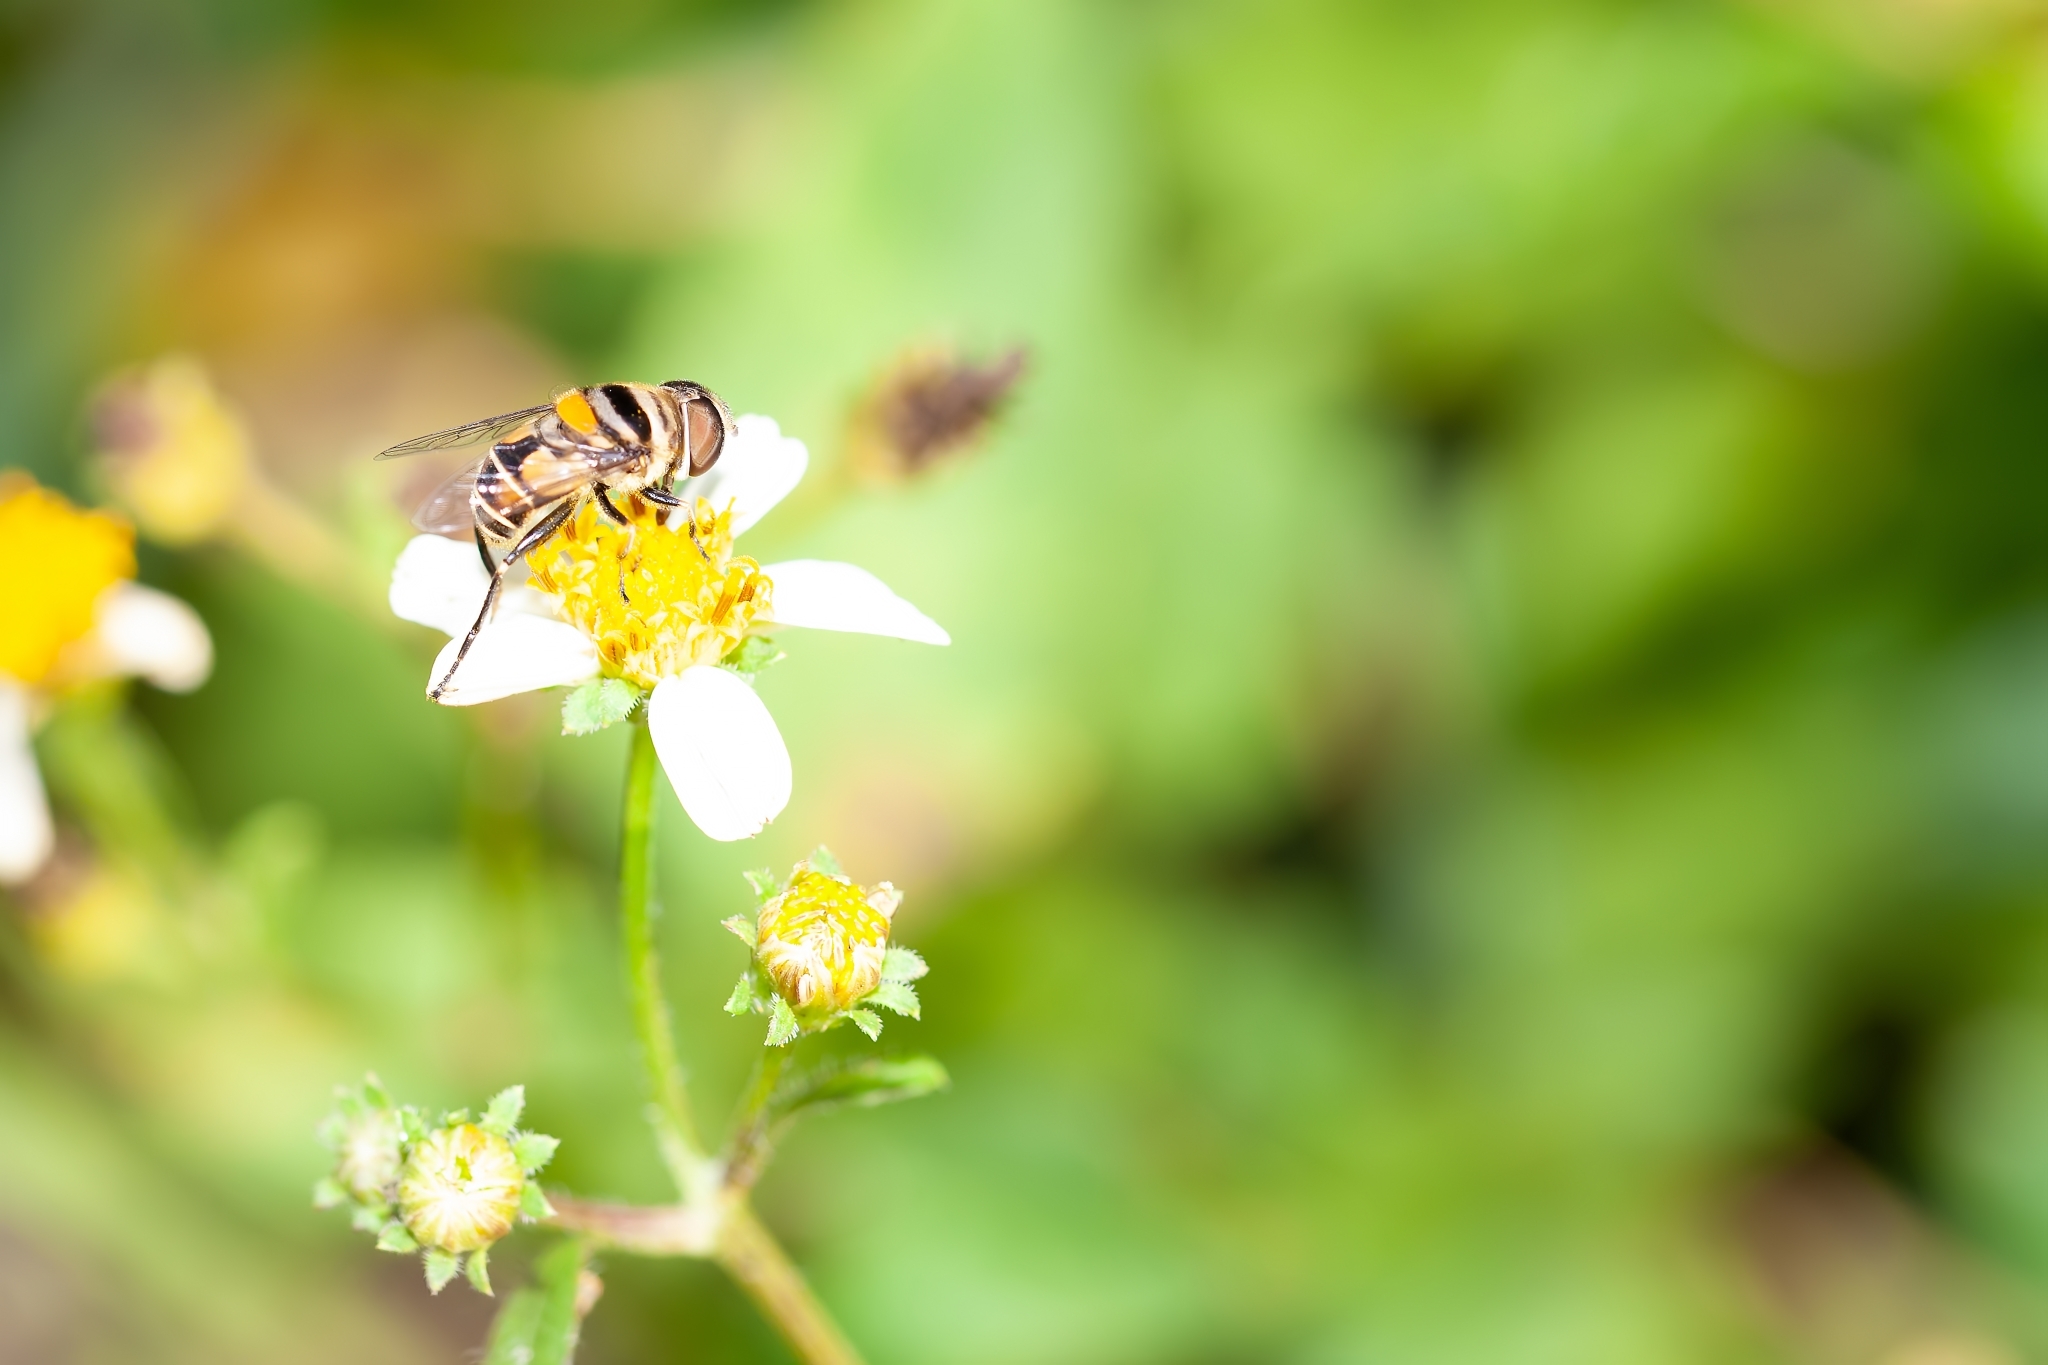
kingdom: Animalia
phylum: Arthropoda
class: Insecta
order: Diptera
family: Syrphidae
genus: Palpada
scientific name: Palpada agrorum
